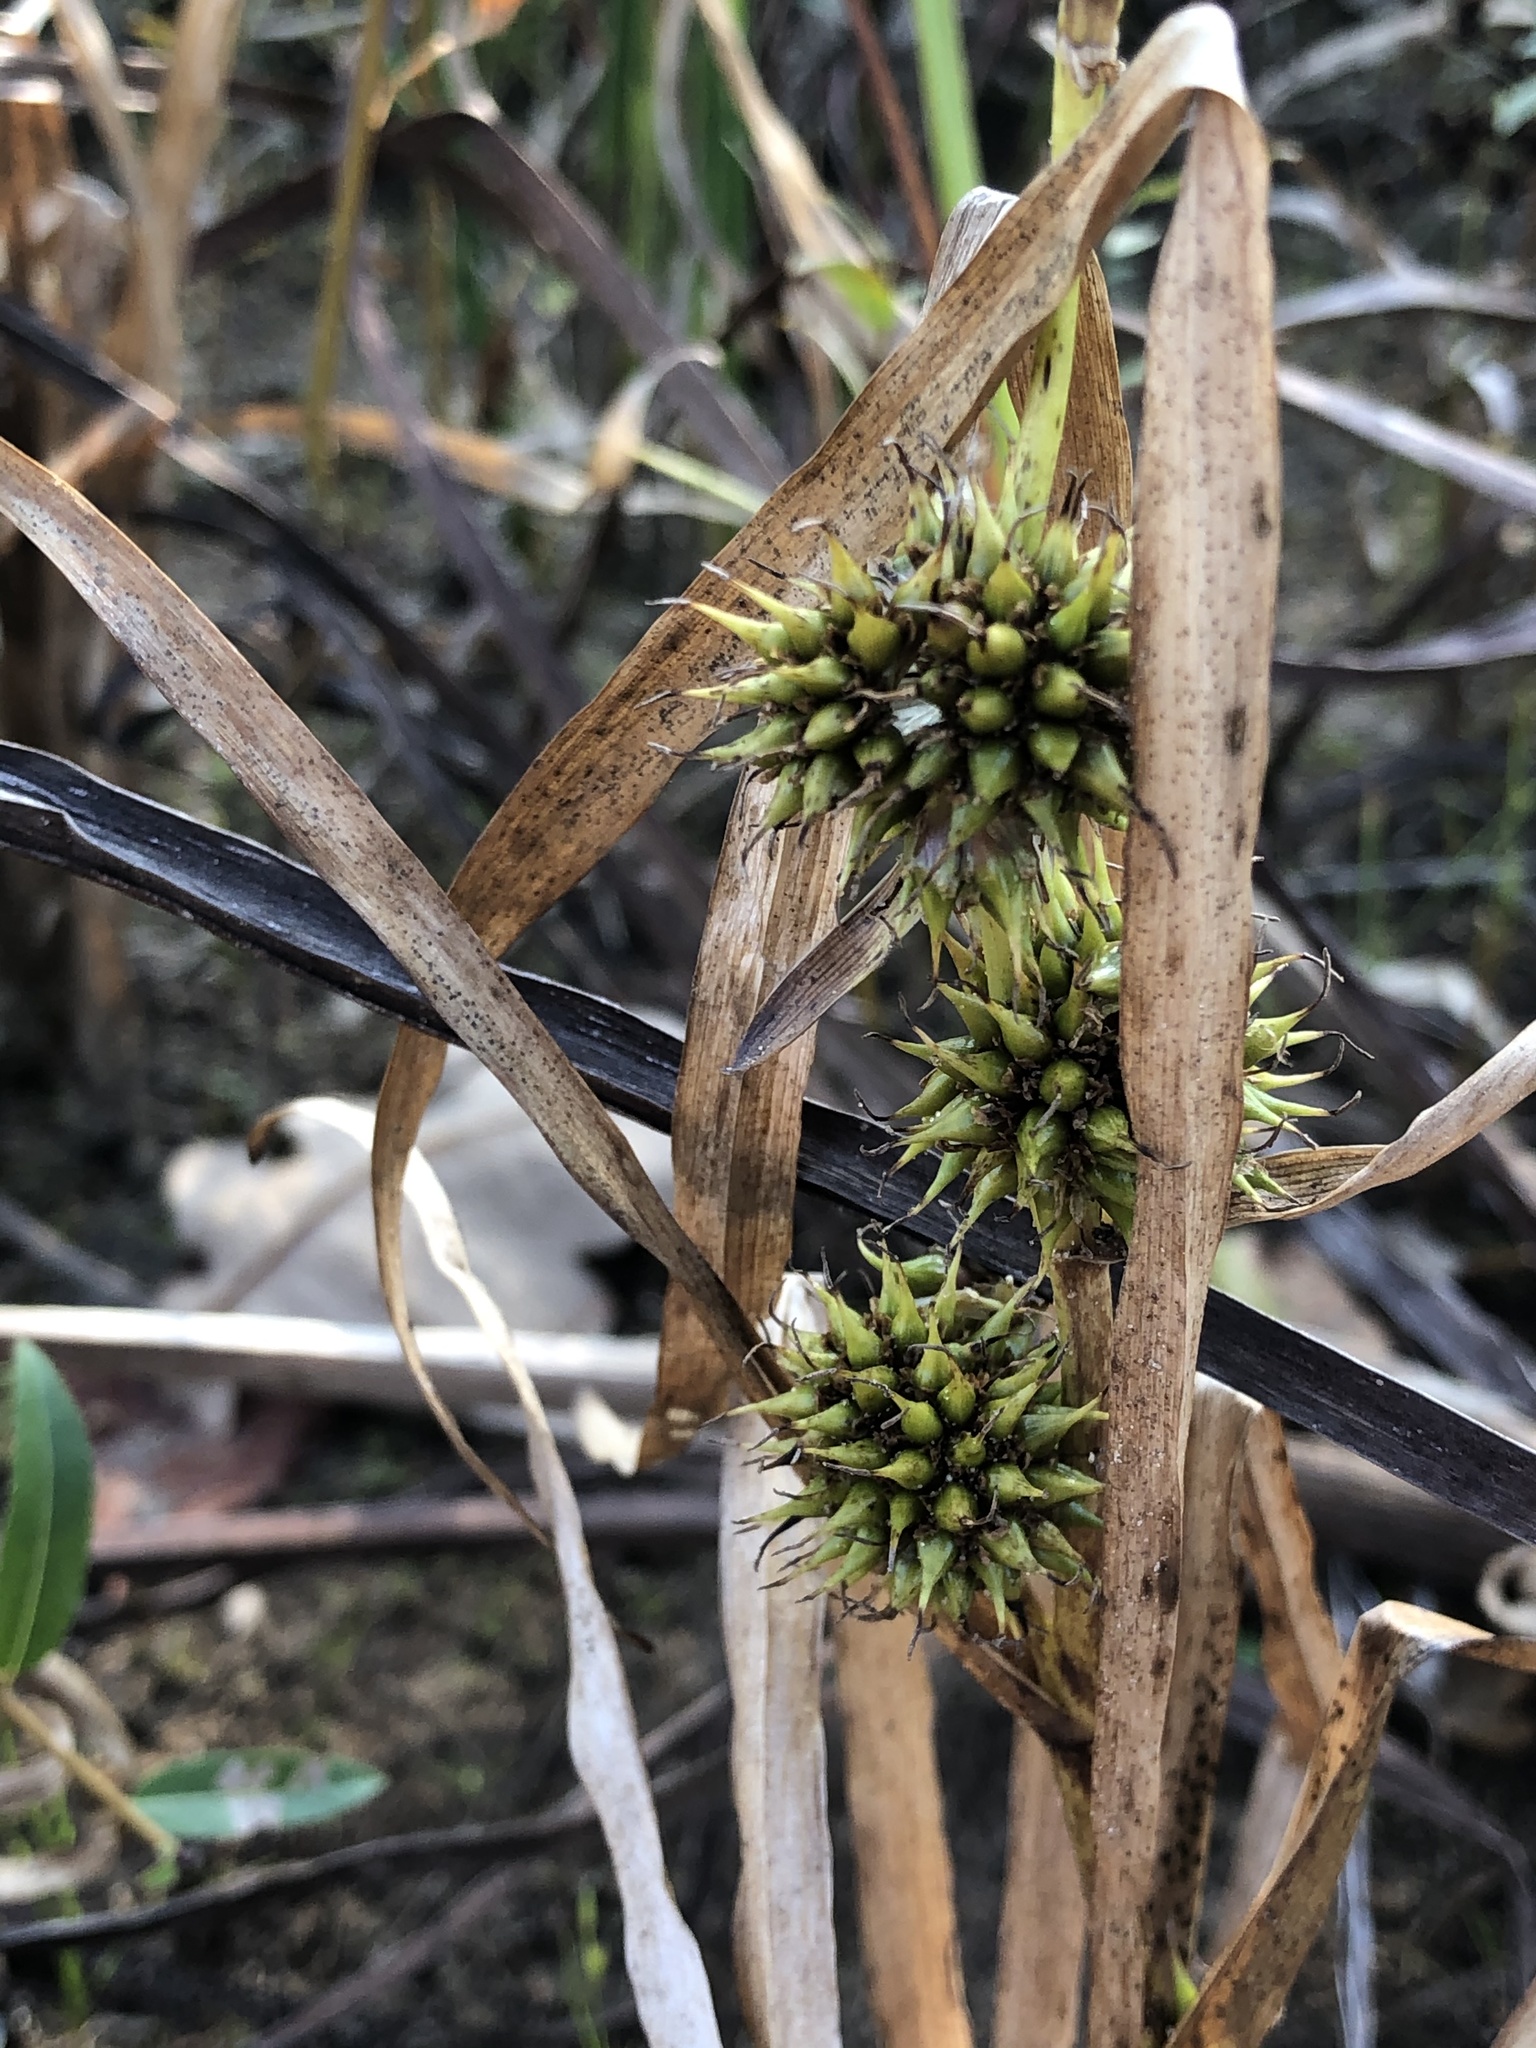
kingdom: Plantae
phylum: Tracheophyta
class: Liliopsida
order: Poales
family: Typhaceae
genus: Sparganium
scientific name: Sparganium emersum
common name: Unbranched bur-reed
